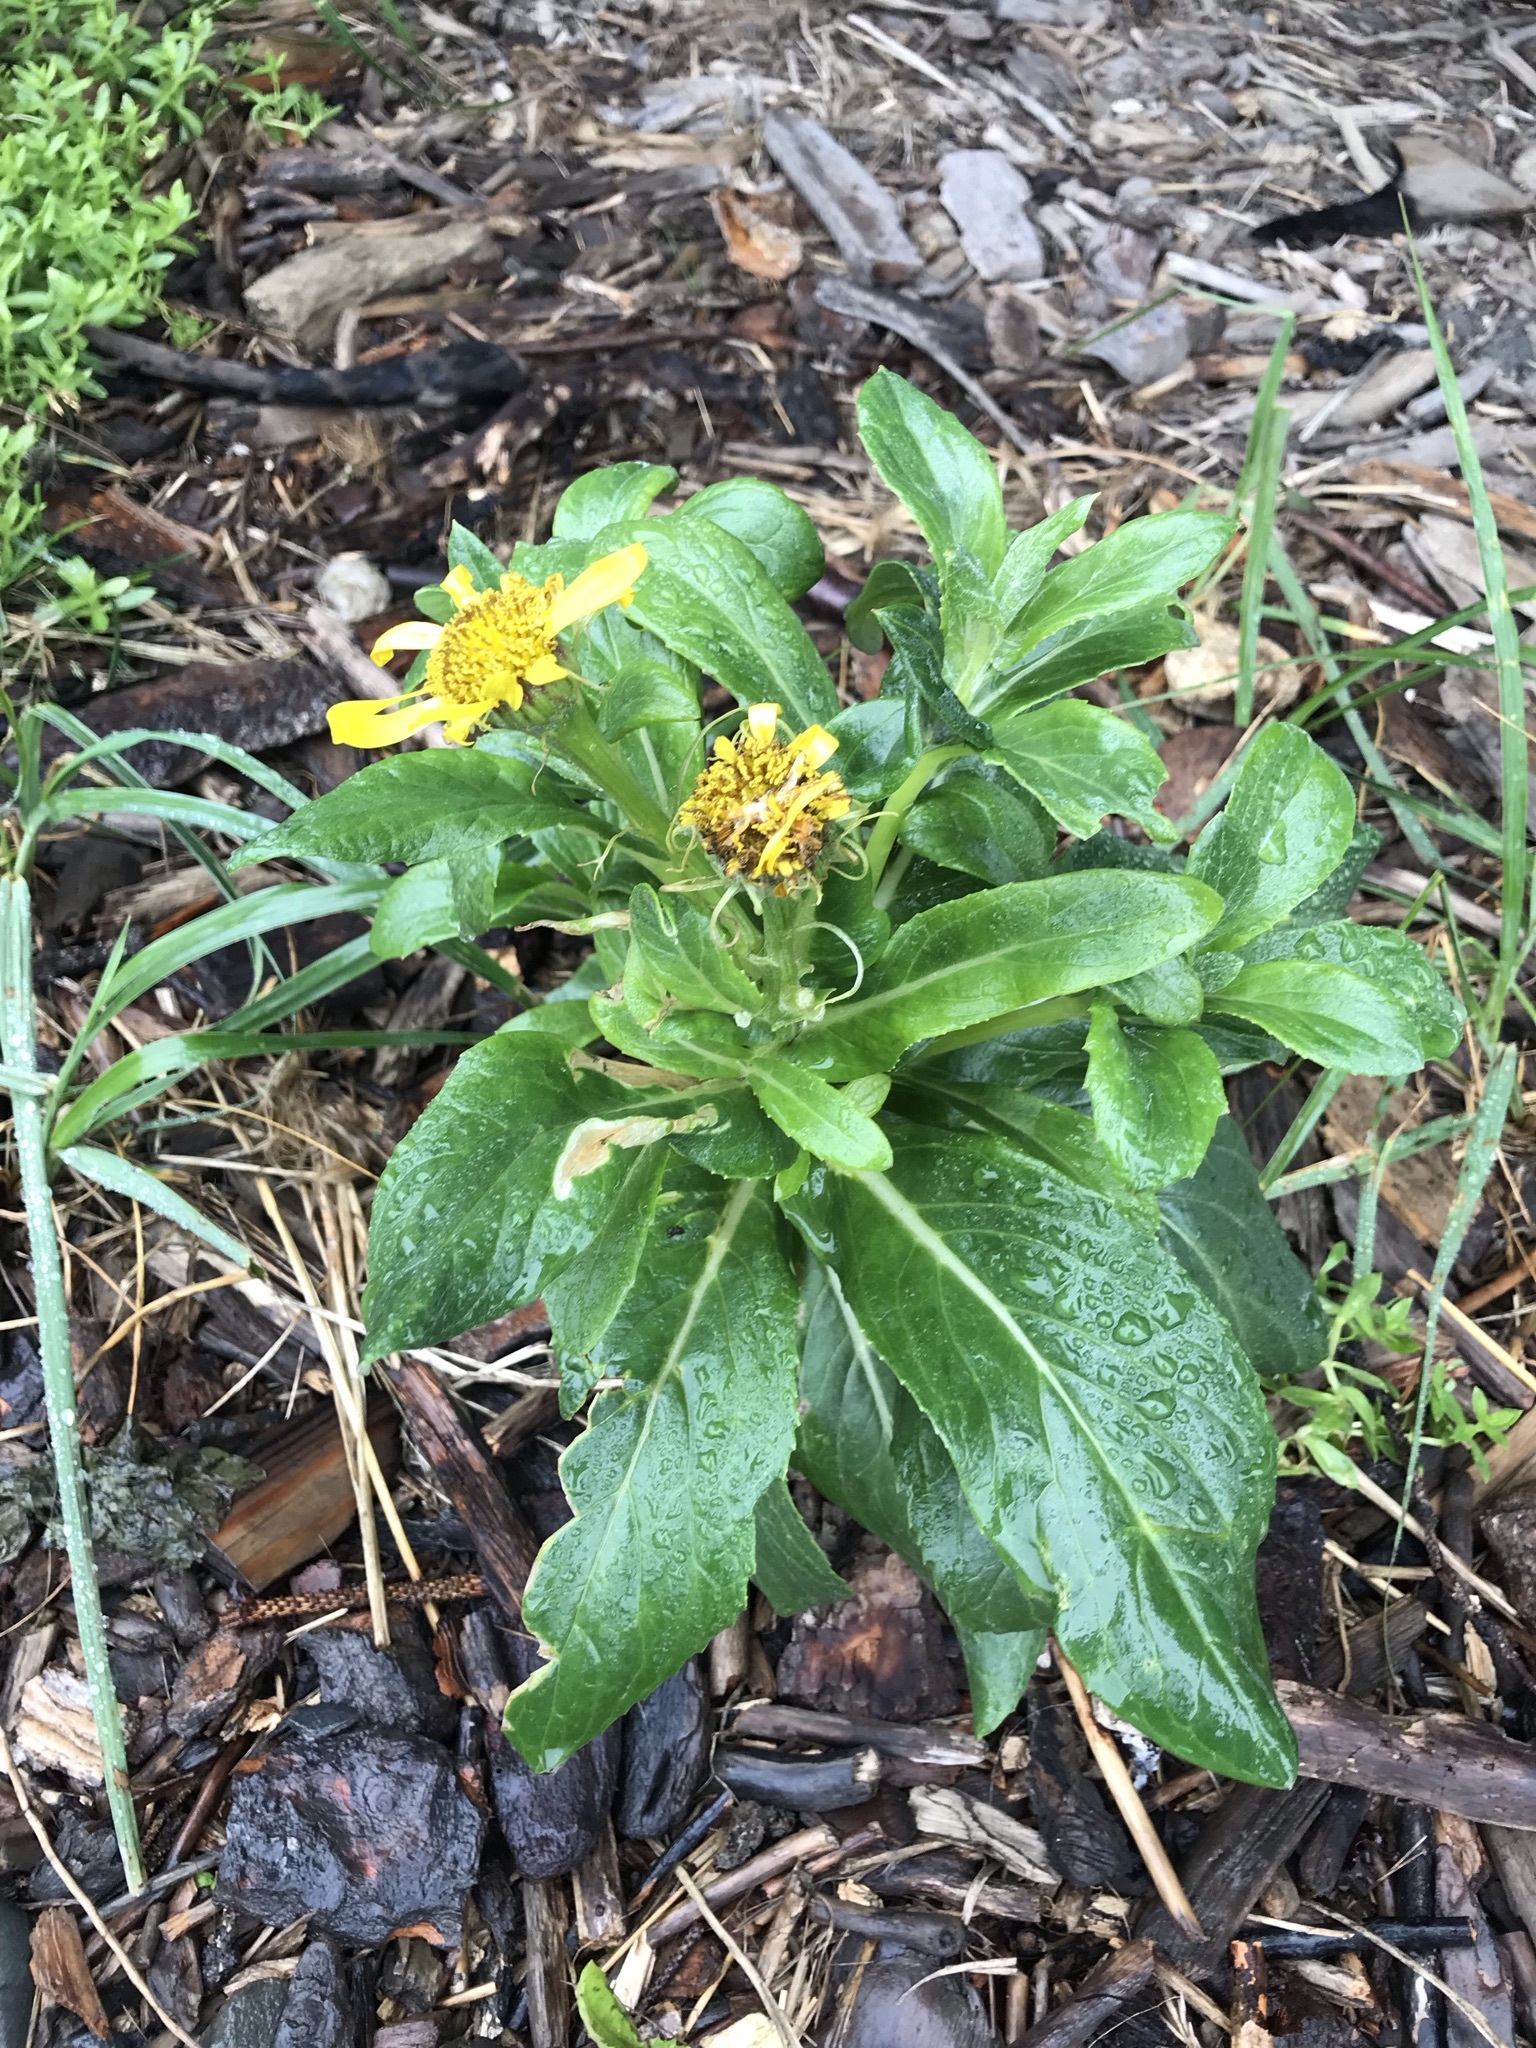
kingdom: Plantae
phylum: Tracheophyta
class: Magnoliopsida
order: Asterales
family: Asteraceae
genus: Jacobaea
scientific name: Jacobaea pseudoarnica
